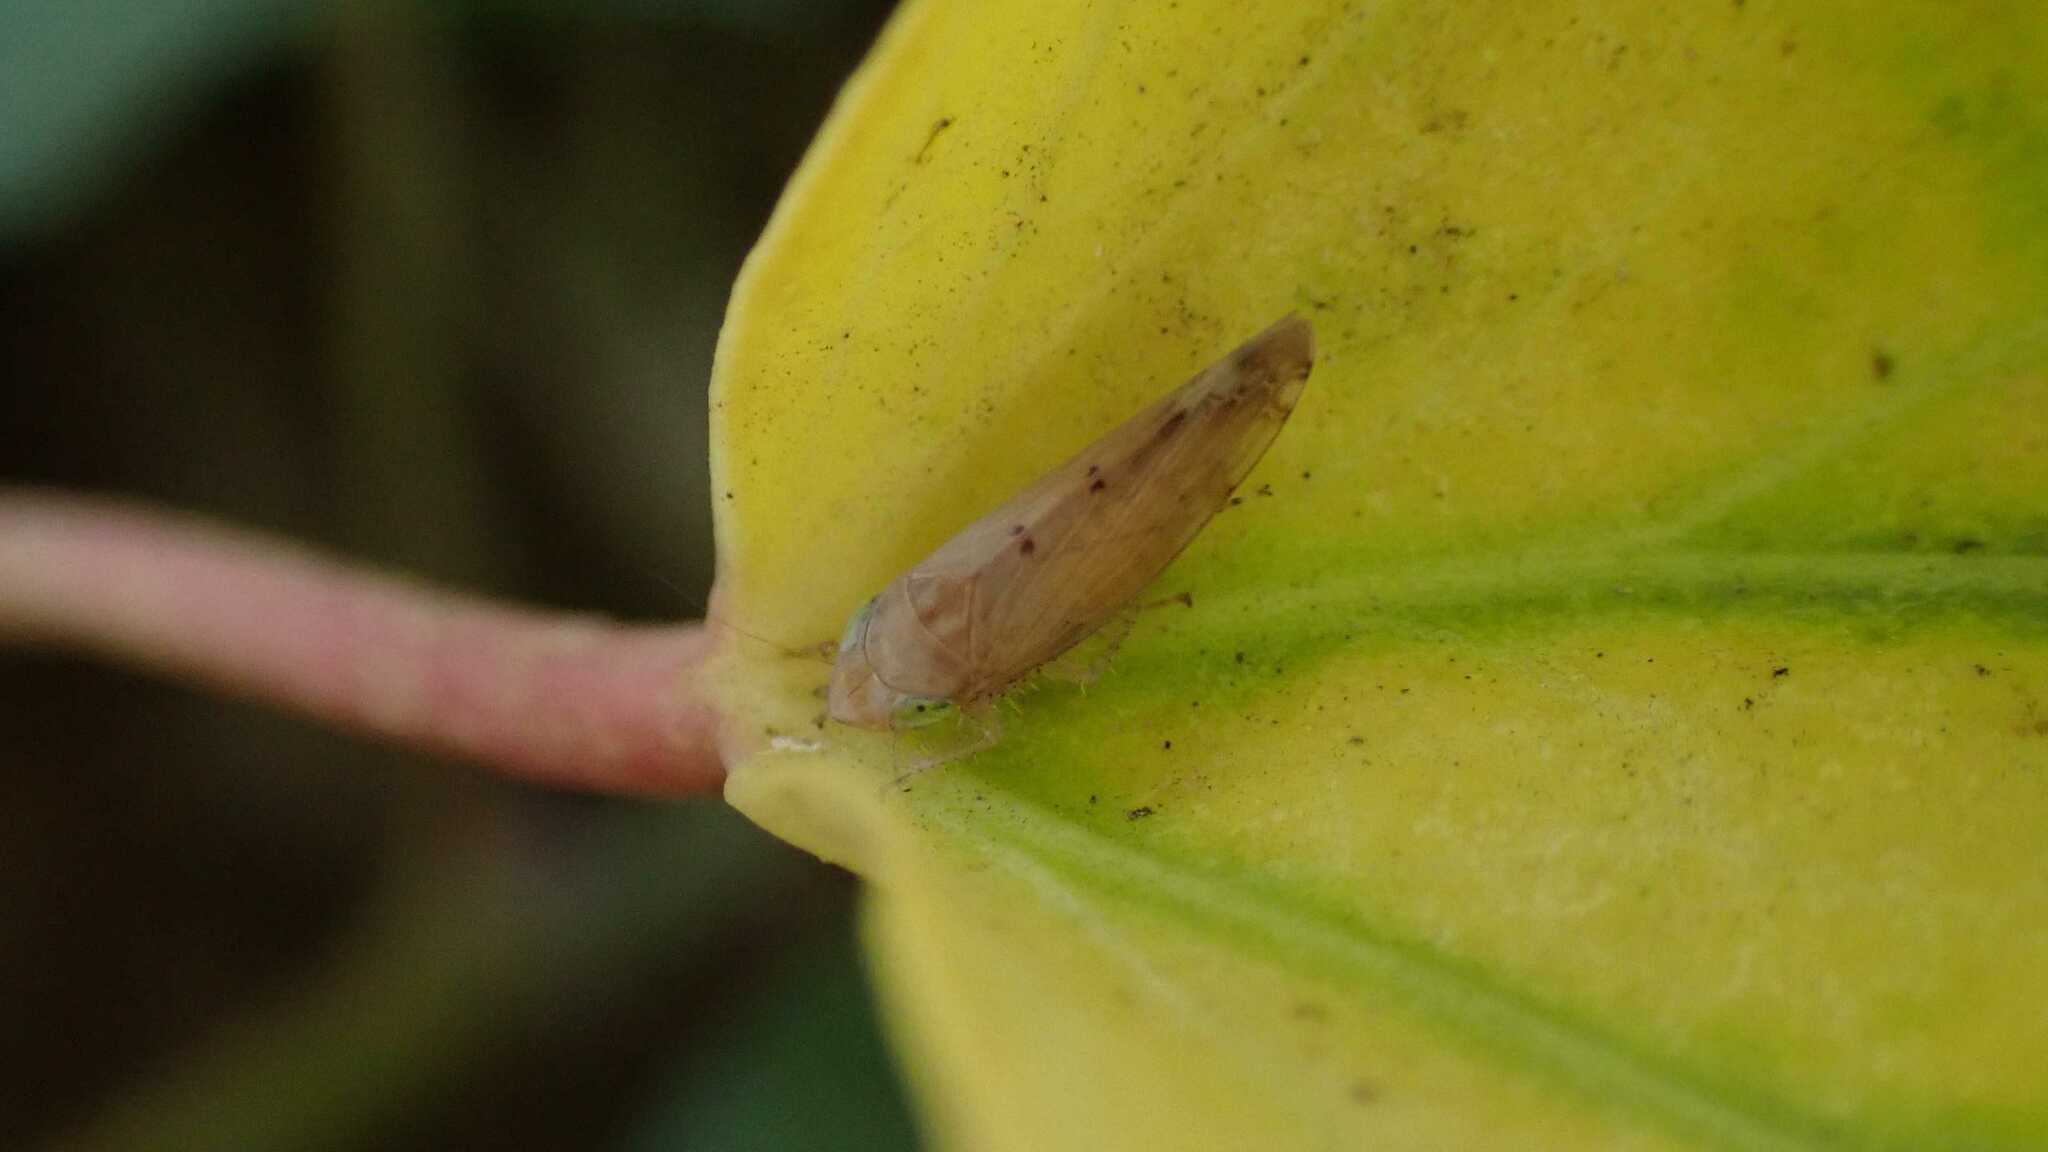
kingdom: Animalia
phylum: Arthropoda
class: Insecta
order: Hemiptera
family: Cicadellidae
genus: Synophropsis
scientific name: Synophropsis lauri
